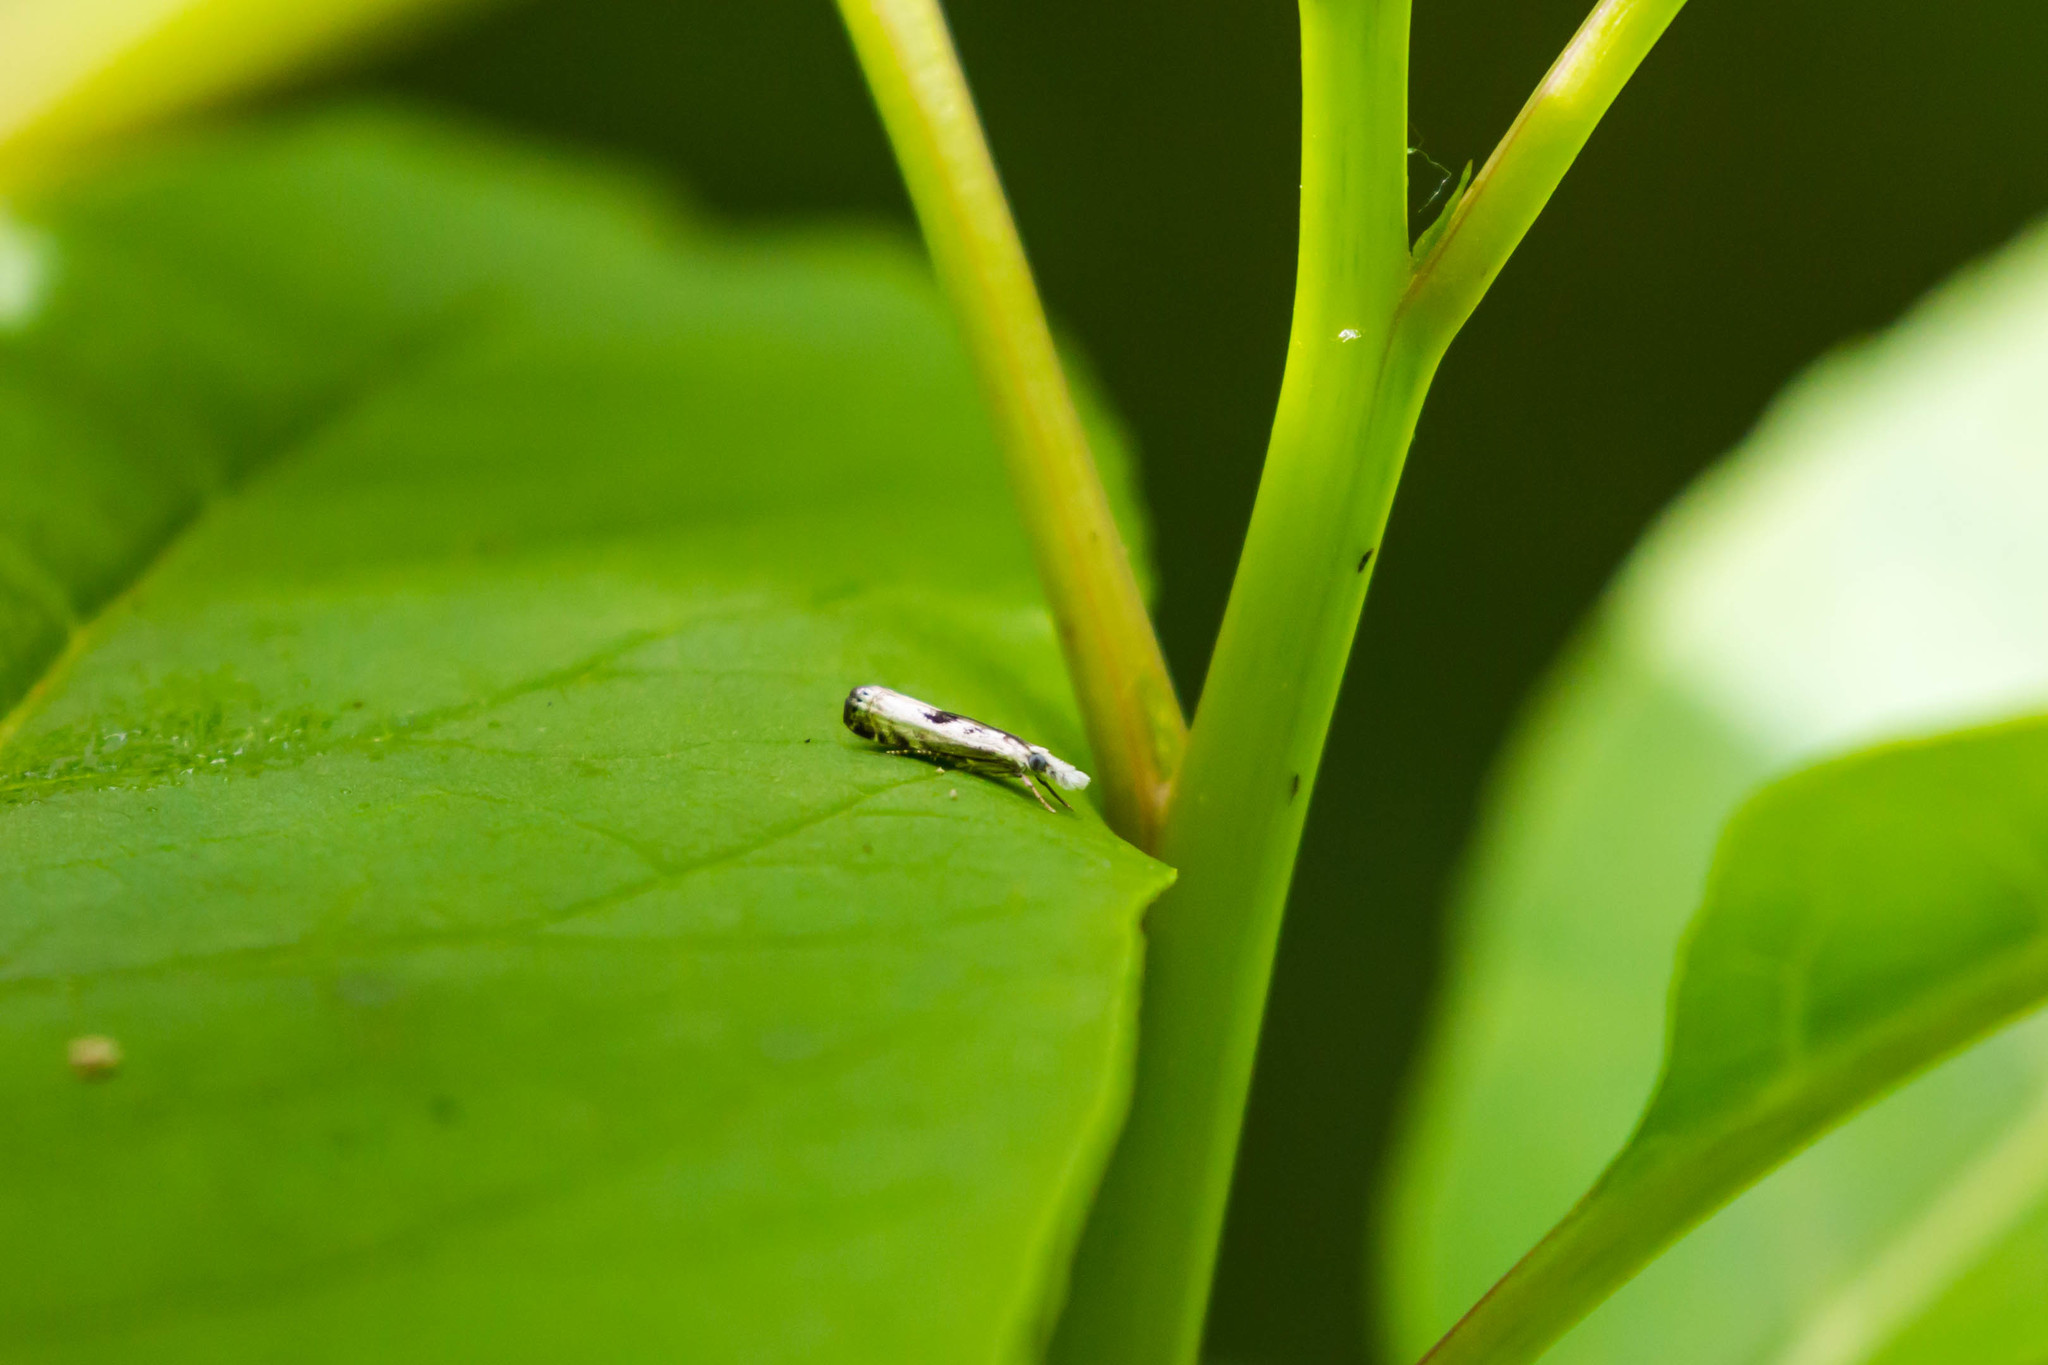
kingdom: Animalia
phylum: Arthropoda
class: Insecta
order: Lepidoptera
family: Crambidae
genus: Microcrambus
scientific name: Microcrambus elegans
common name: Elegant grass-veneer
